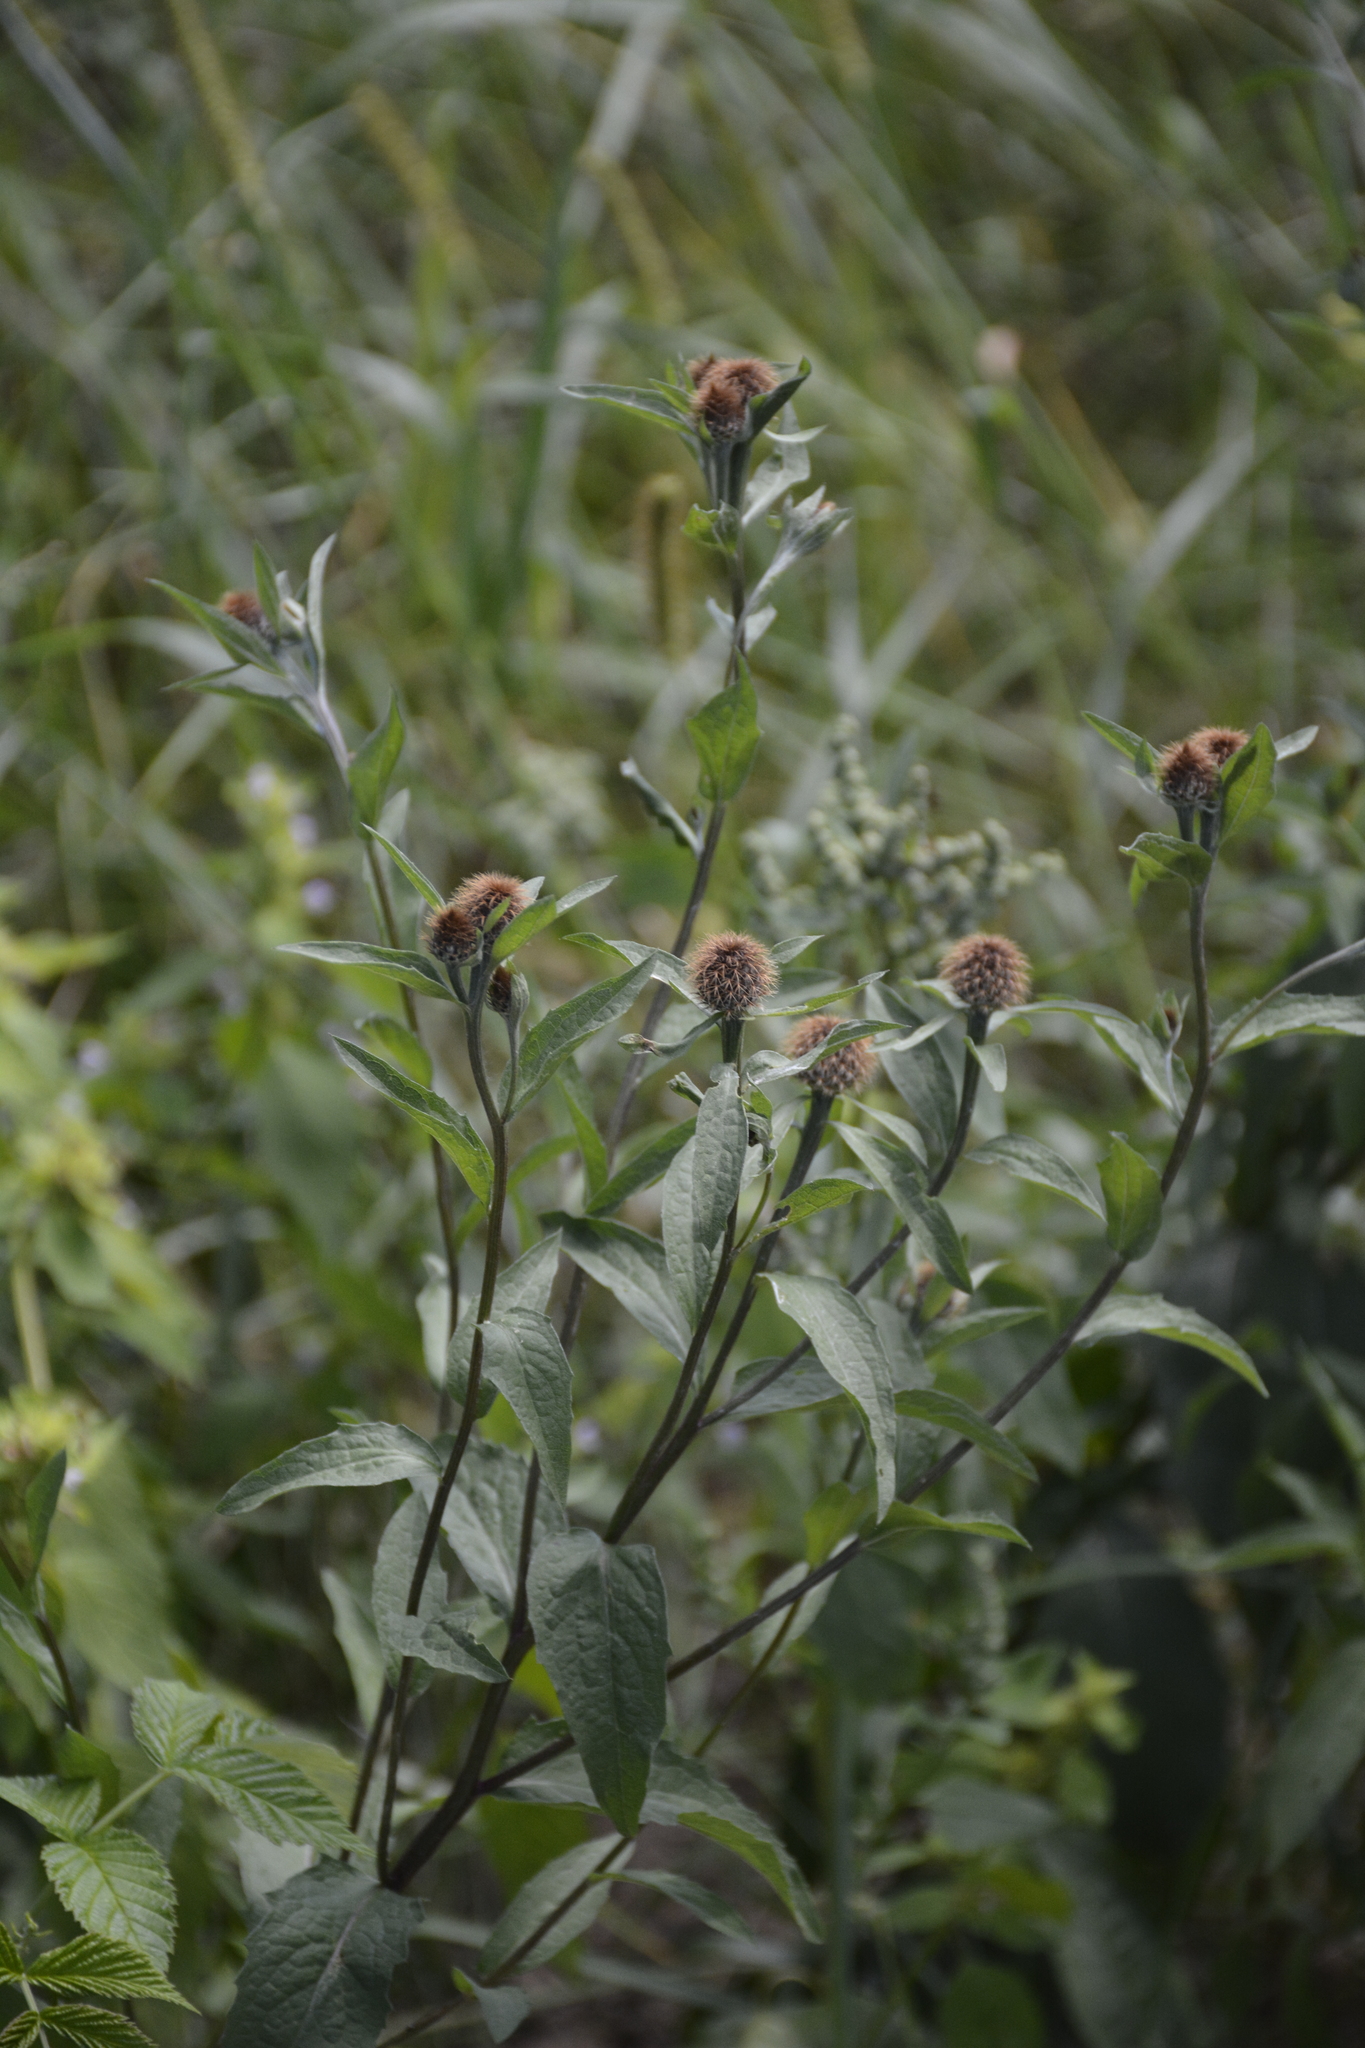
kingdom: Plantae
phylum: Tracheophyta
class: Magnoliopsida
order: Asterales
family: Asteraceae
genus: Centaurea
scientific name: Centaurea phrygia
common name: Wig knapweed
